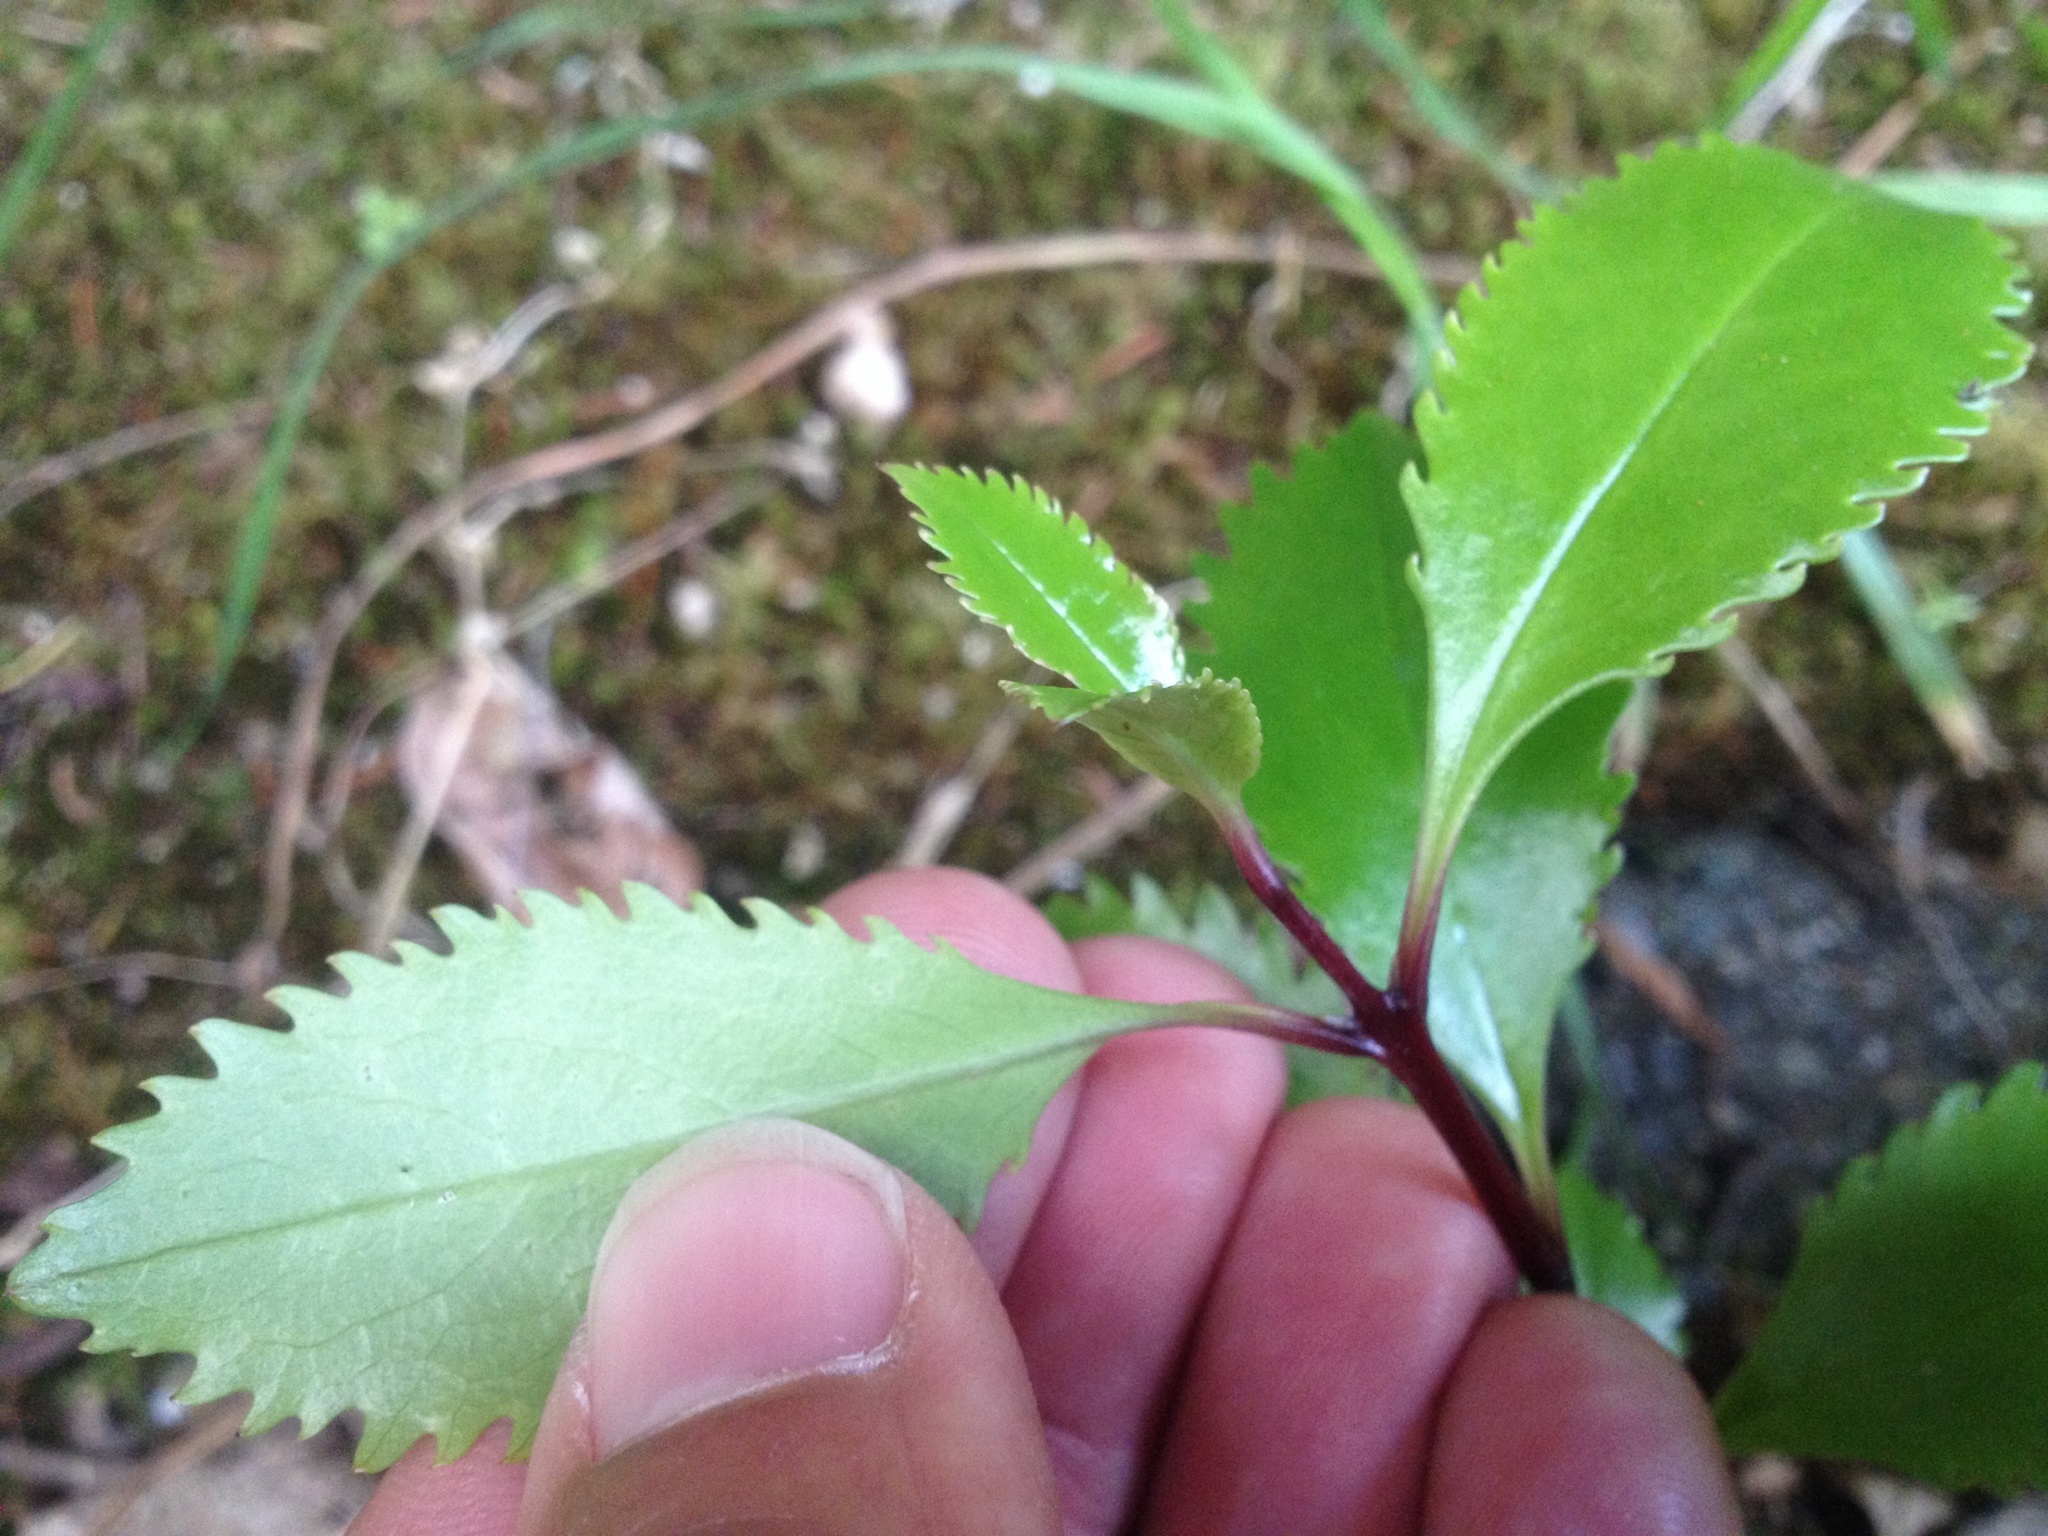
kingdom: Plantae
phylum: Tracheophyta
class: Magnoliopsida
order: Chloranthales
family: Chloranthaceae
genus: Ascarina
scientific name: Ascarina lucida
